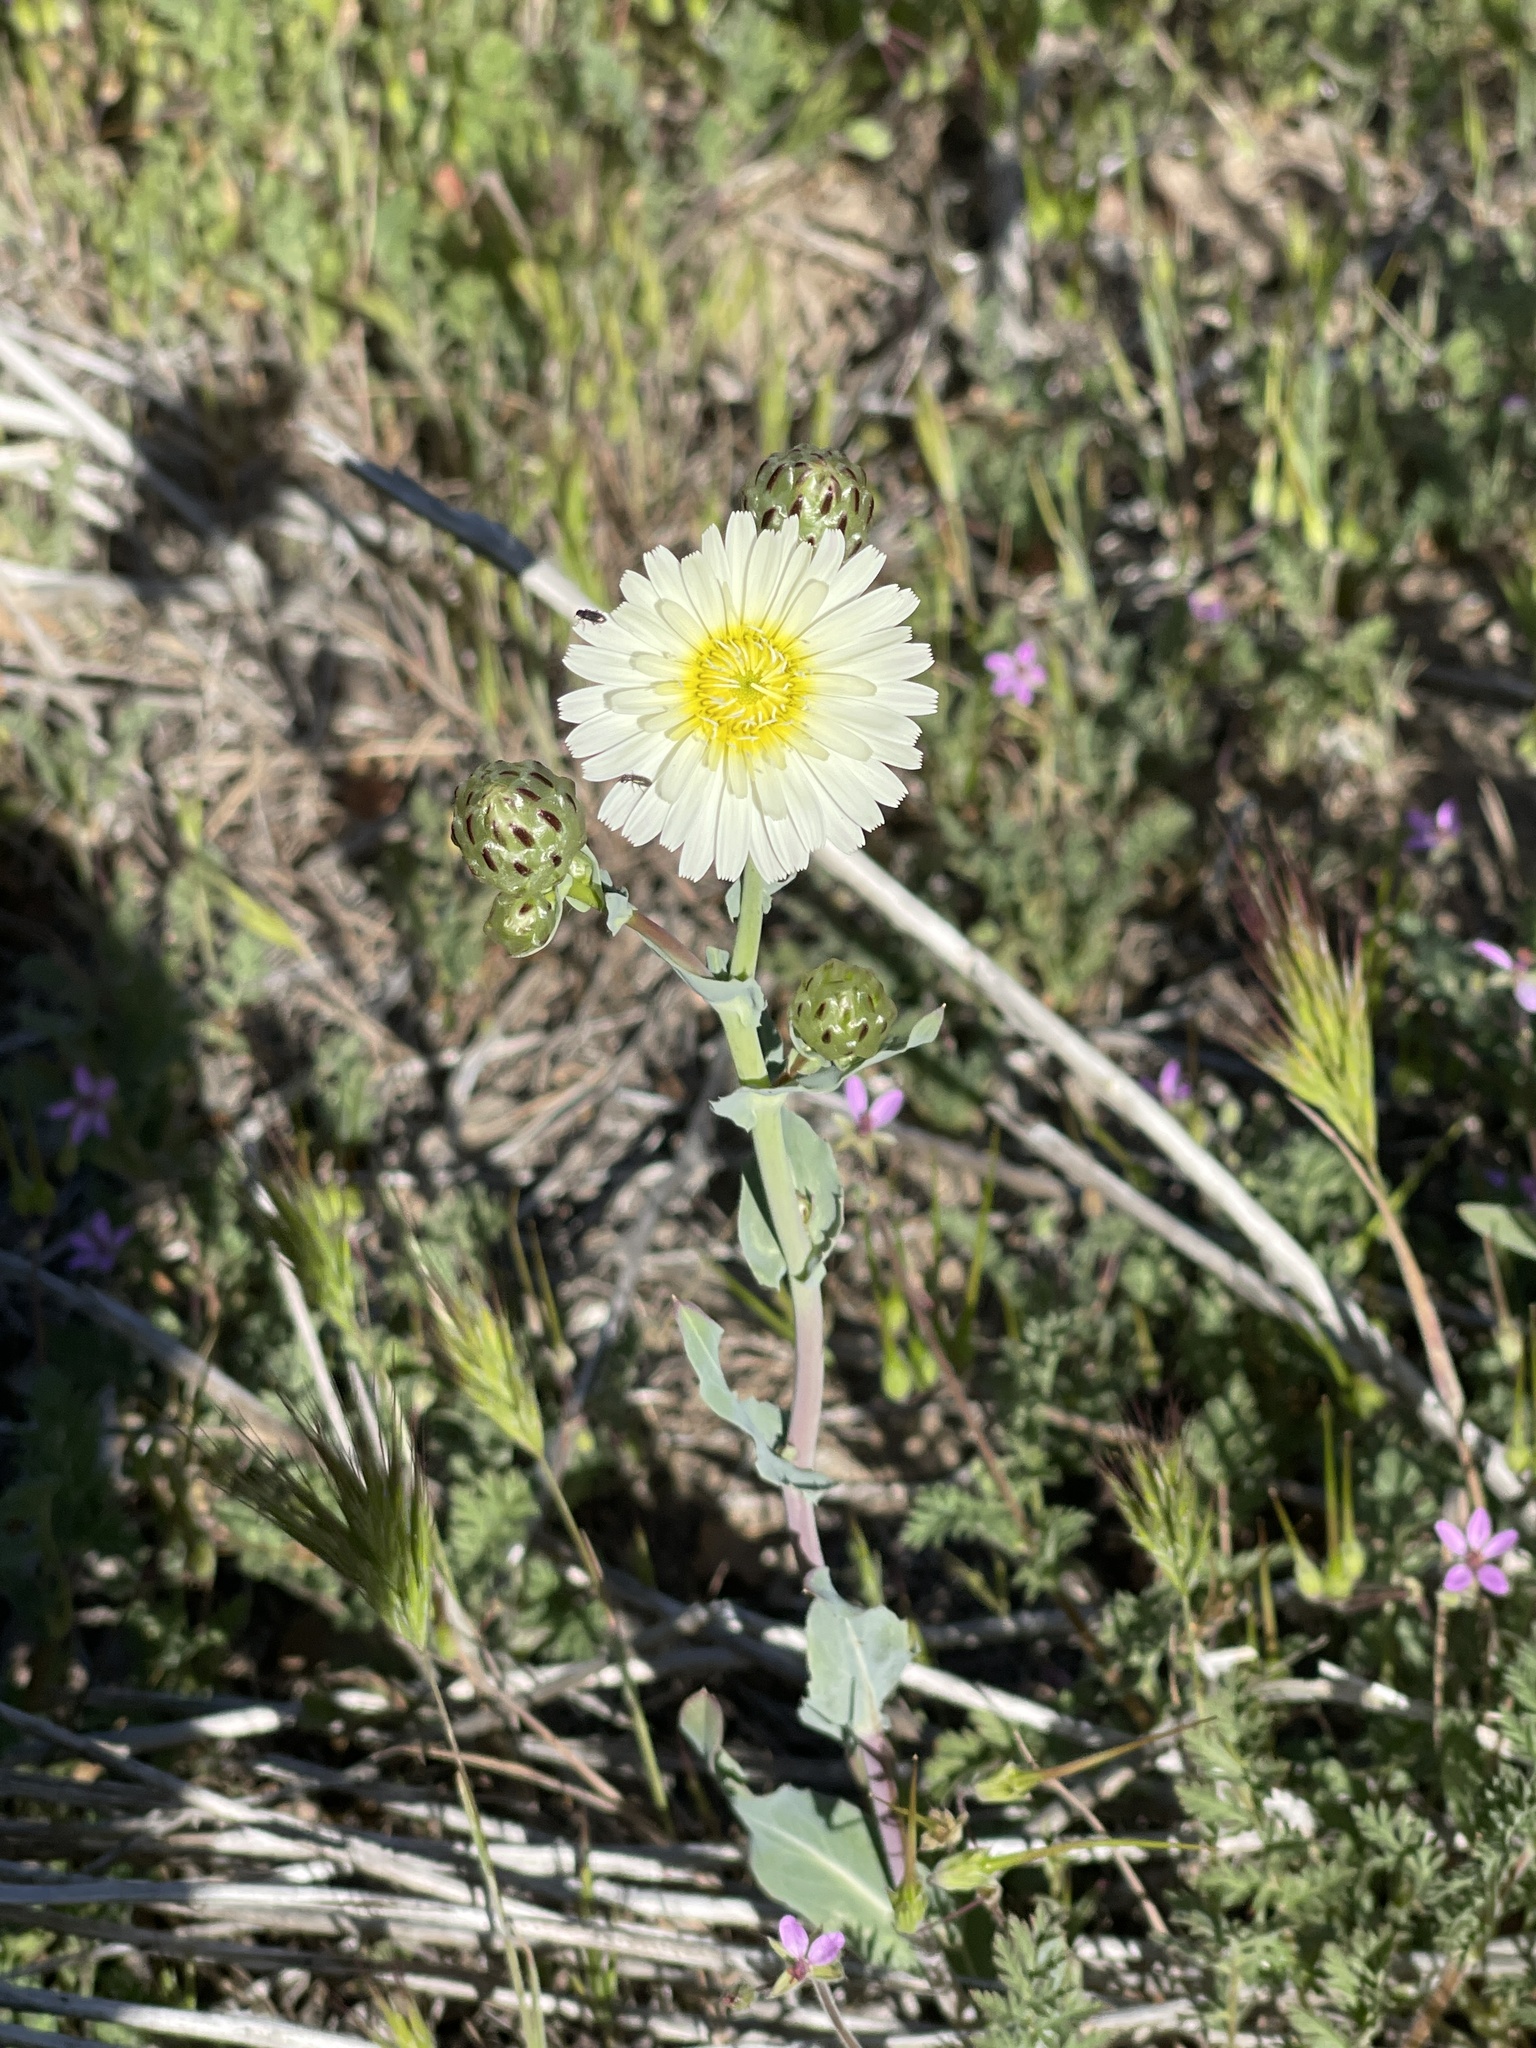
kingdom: Plantae
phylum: Tracheophyta
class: Magnoliopsida
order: Asterales
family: Asteraceae
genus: Malacothrix
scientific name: Malacothrix coulteri
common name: Snake's-head
